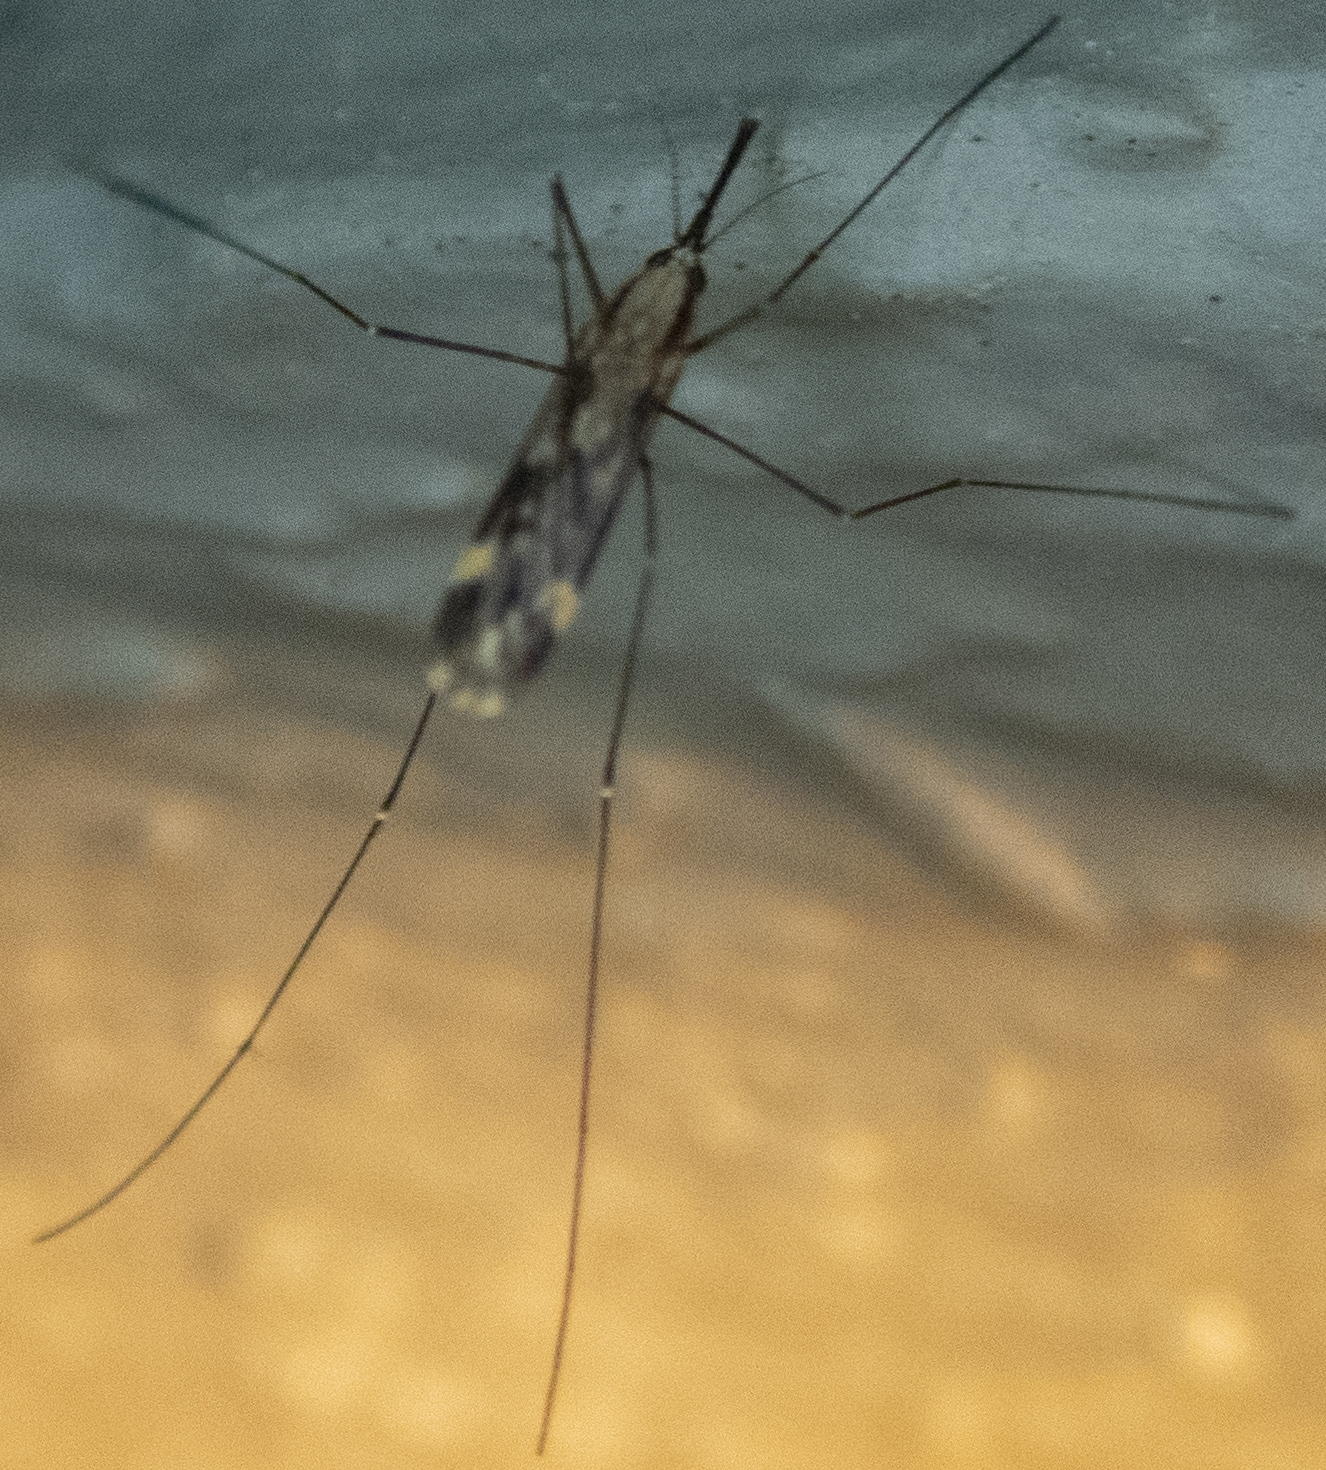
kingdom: Animalia
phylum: Arthropoda
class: Insecta
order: Diptera
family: Culicidae
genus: Anopheles
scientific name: Anopheles punctipennis
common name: Woodland malaria mosquito
